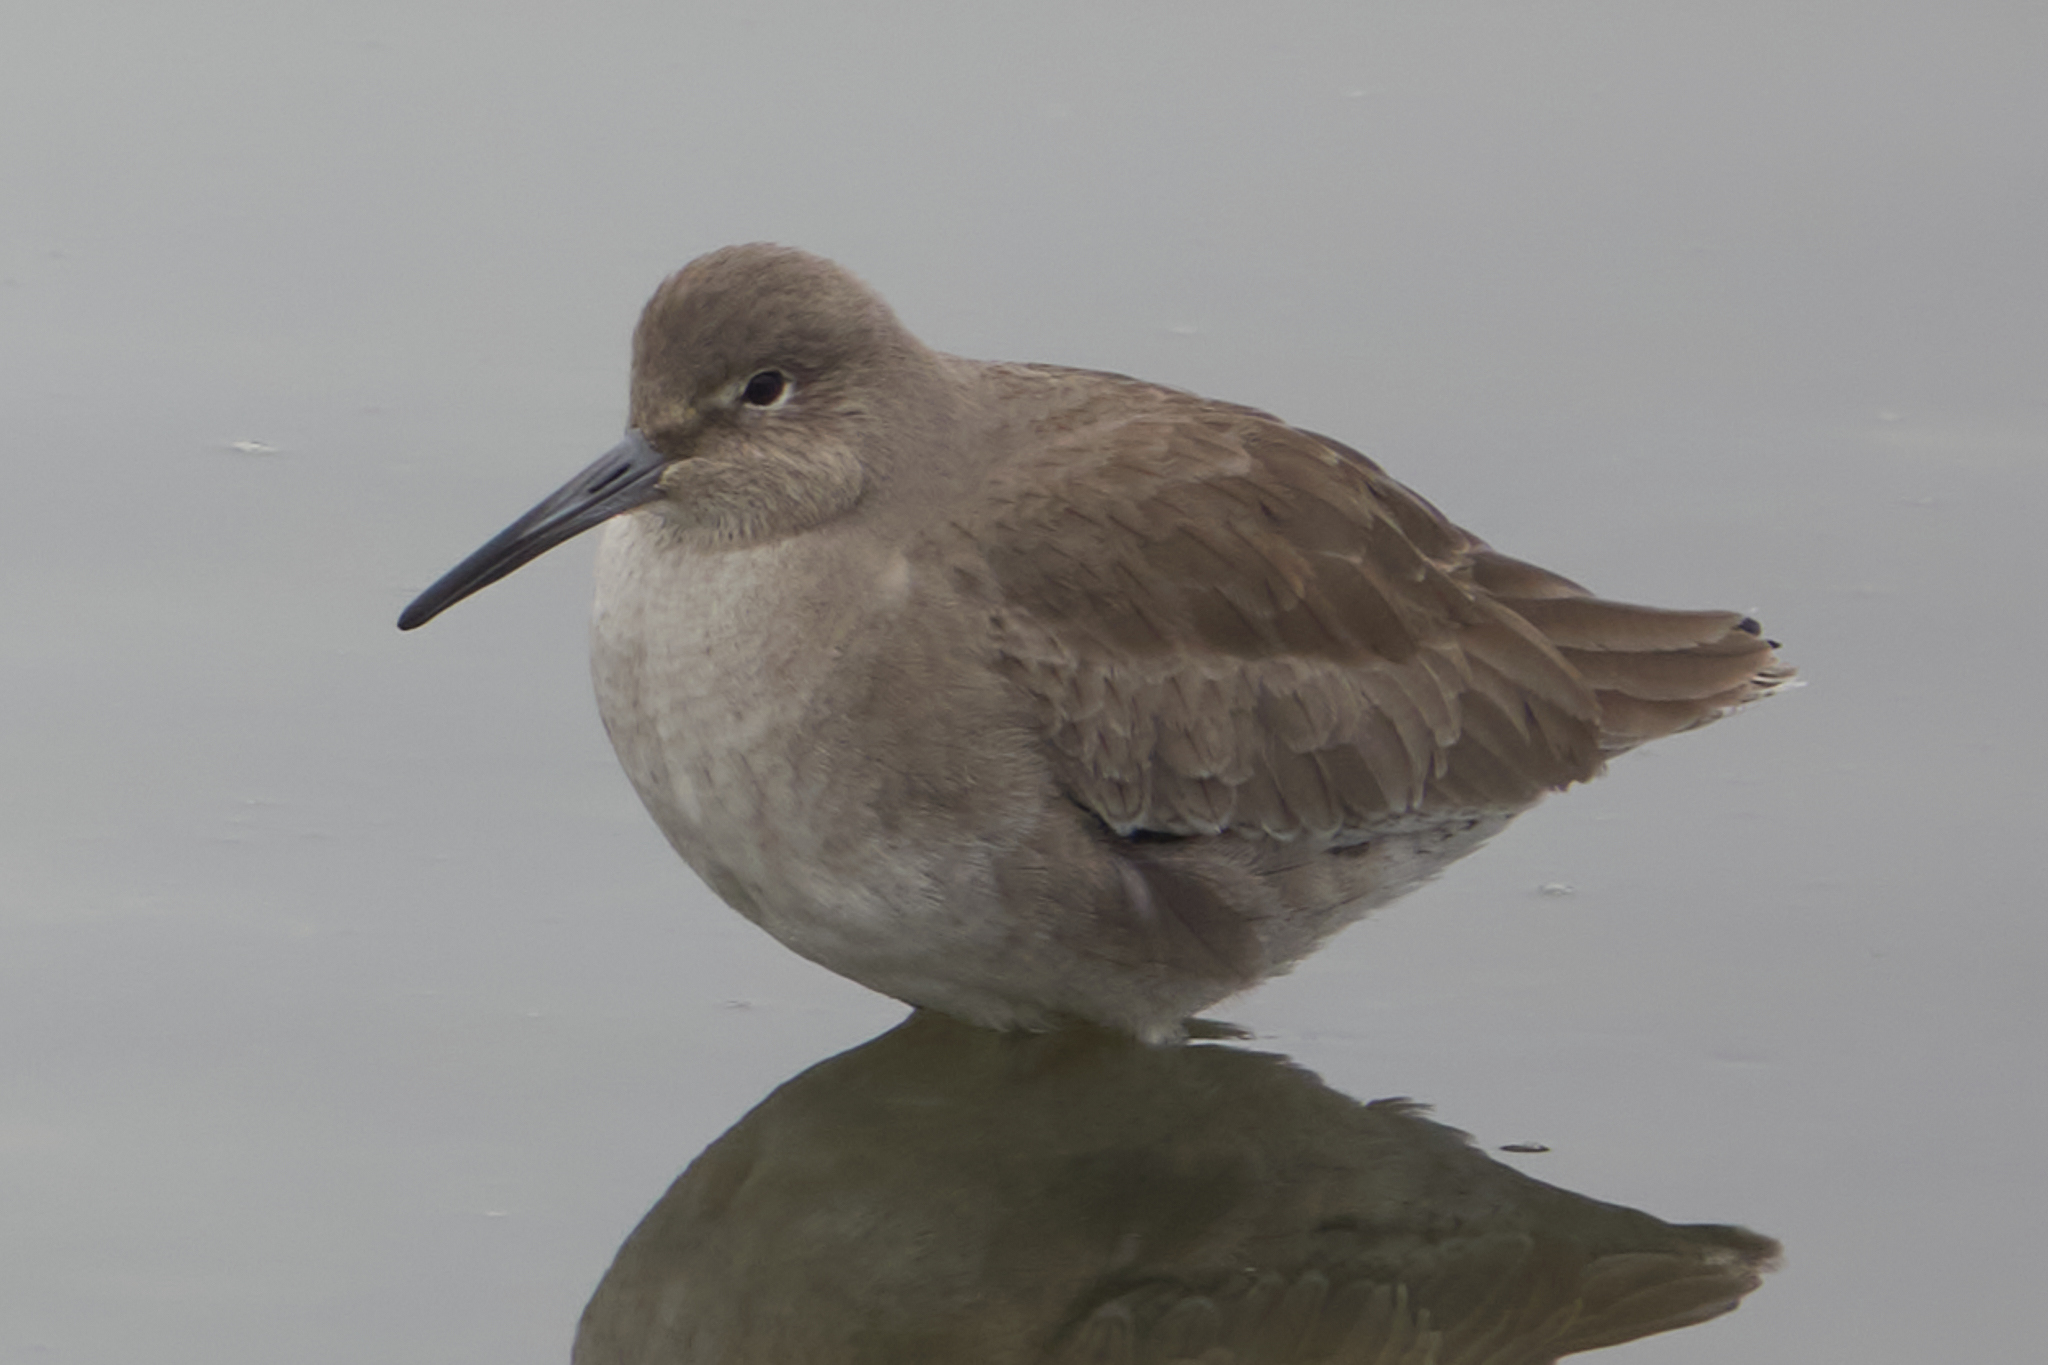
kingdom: Animalia
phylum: Chordata
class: Aves
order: Charadriiformes
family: Scolopacidae
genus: Tringa
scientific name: Tringa semipalmata
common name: Willet
